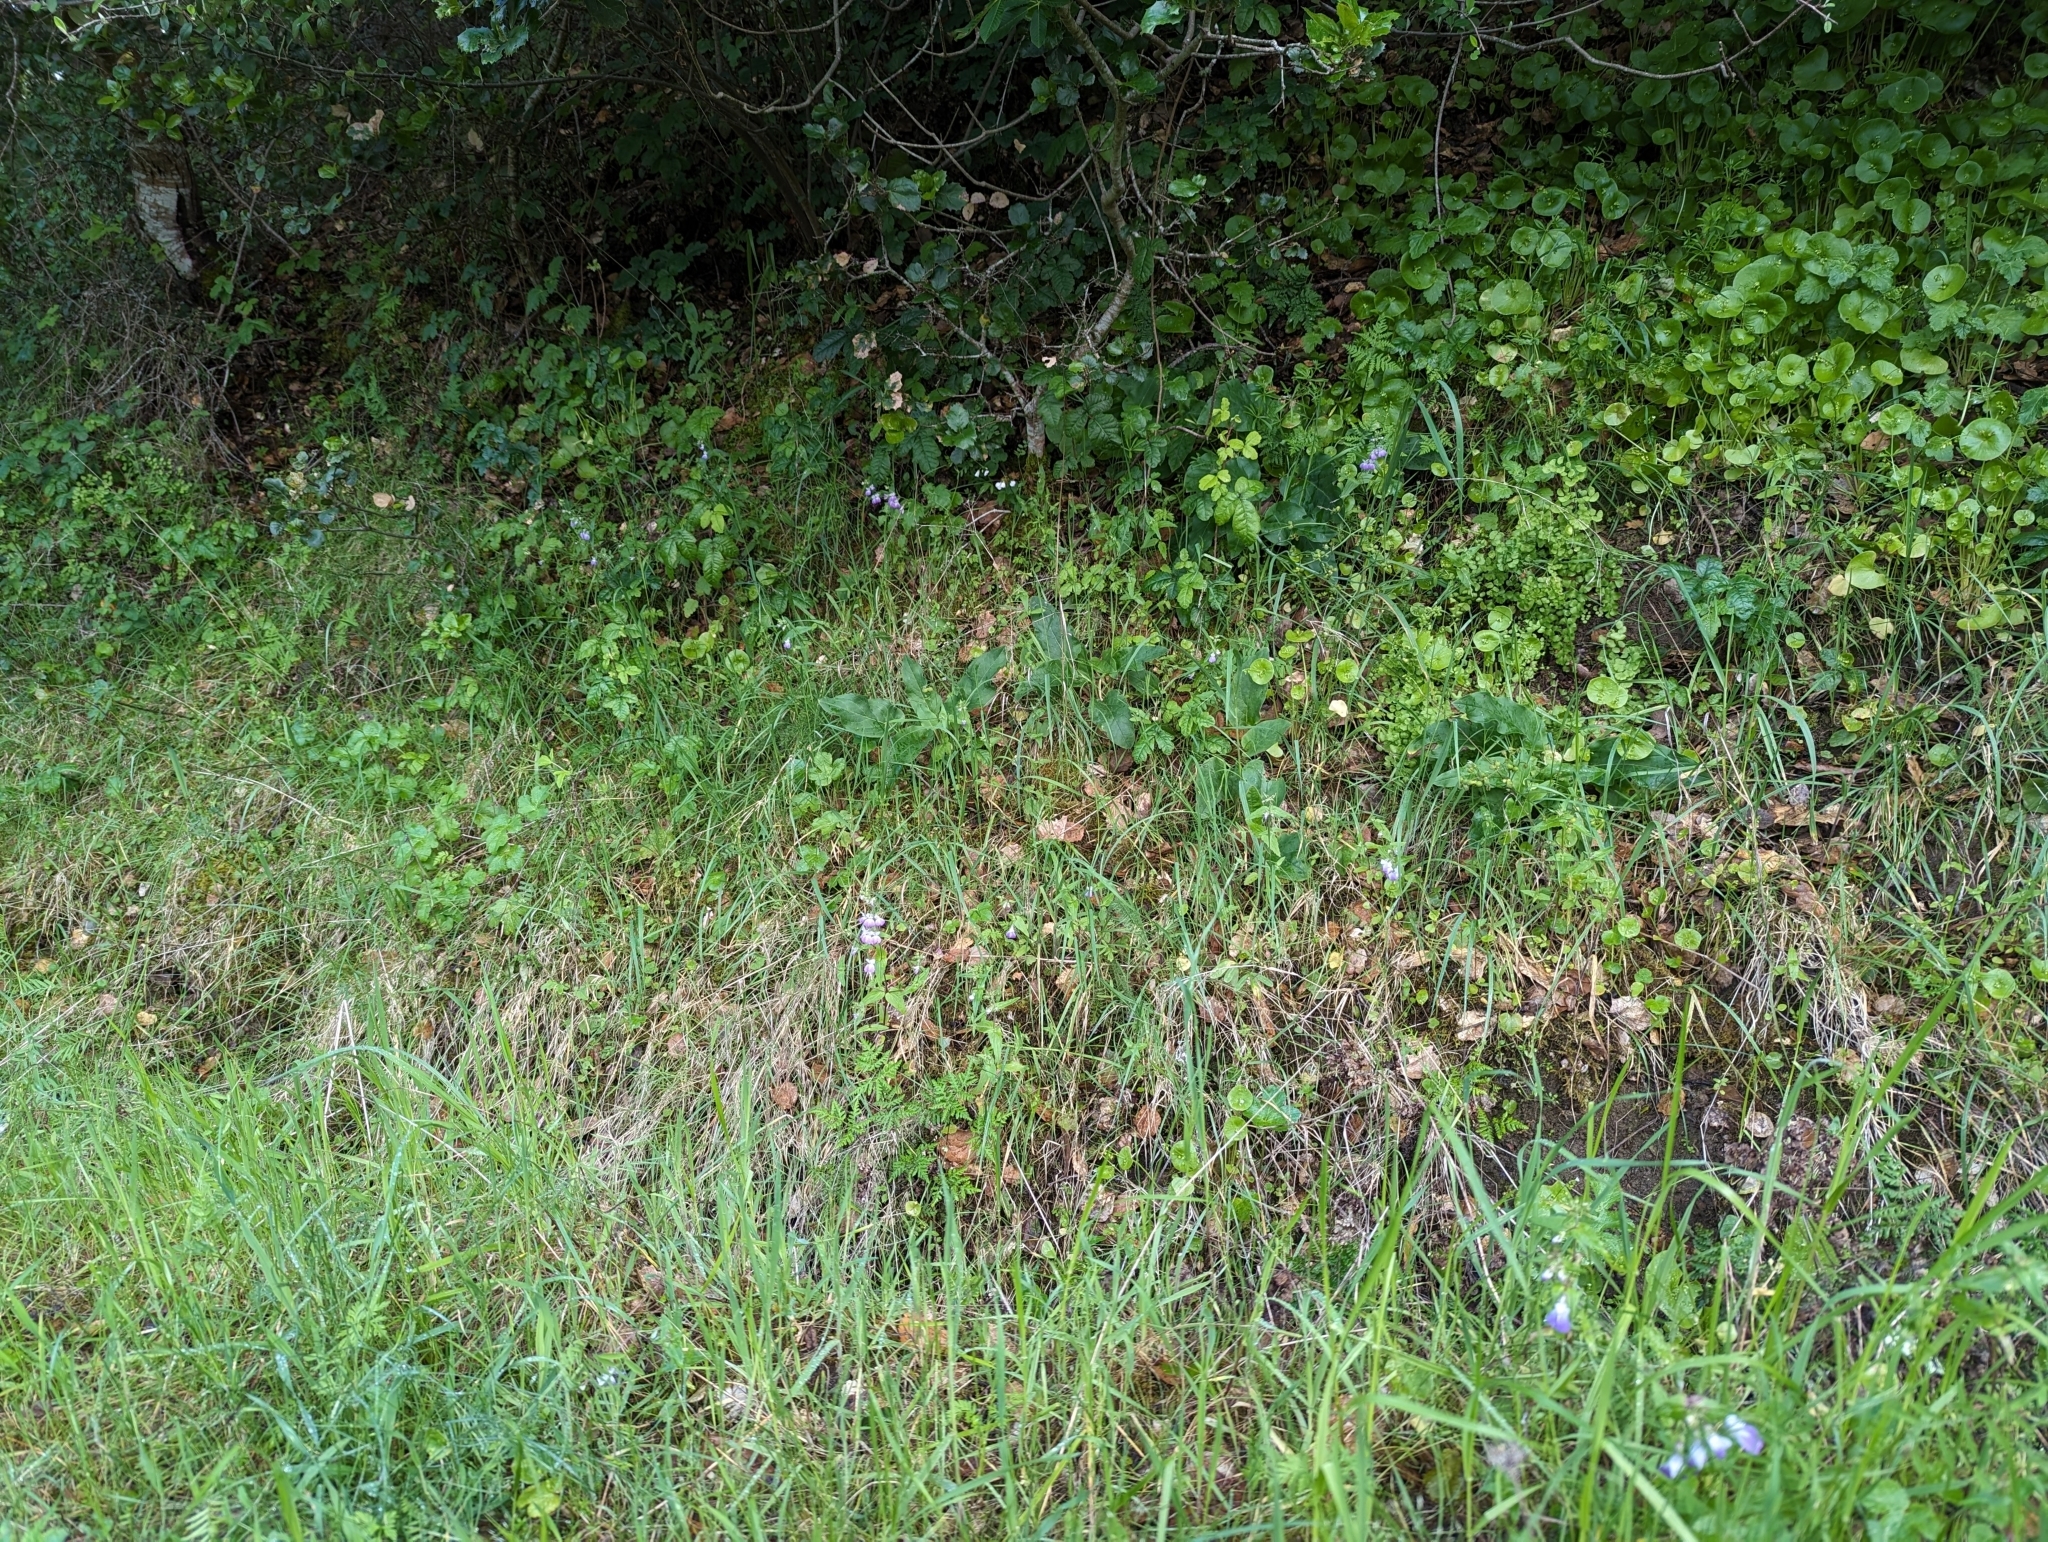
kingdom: Plantae
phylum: Tracheophyta
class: Magnoliopsida
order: Lamiales
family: Plantaginaceae
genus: Collinsia
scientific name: Collinsia multicolor
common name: San francisco collinsia
